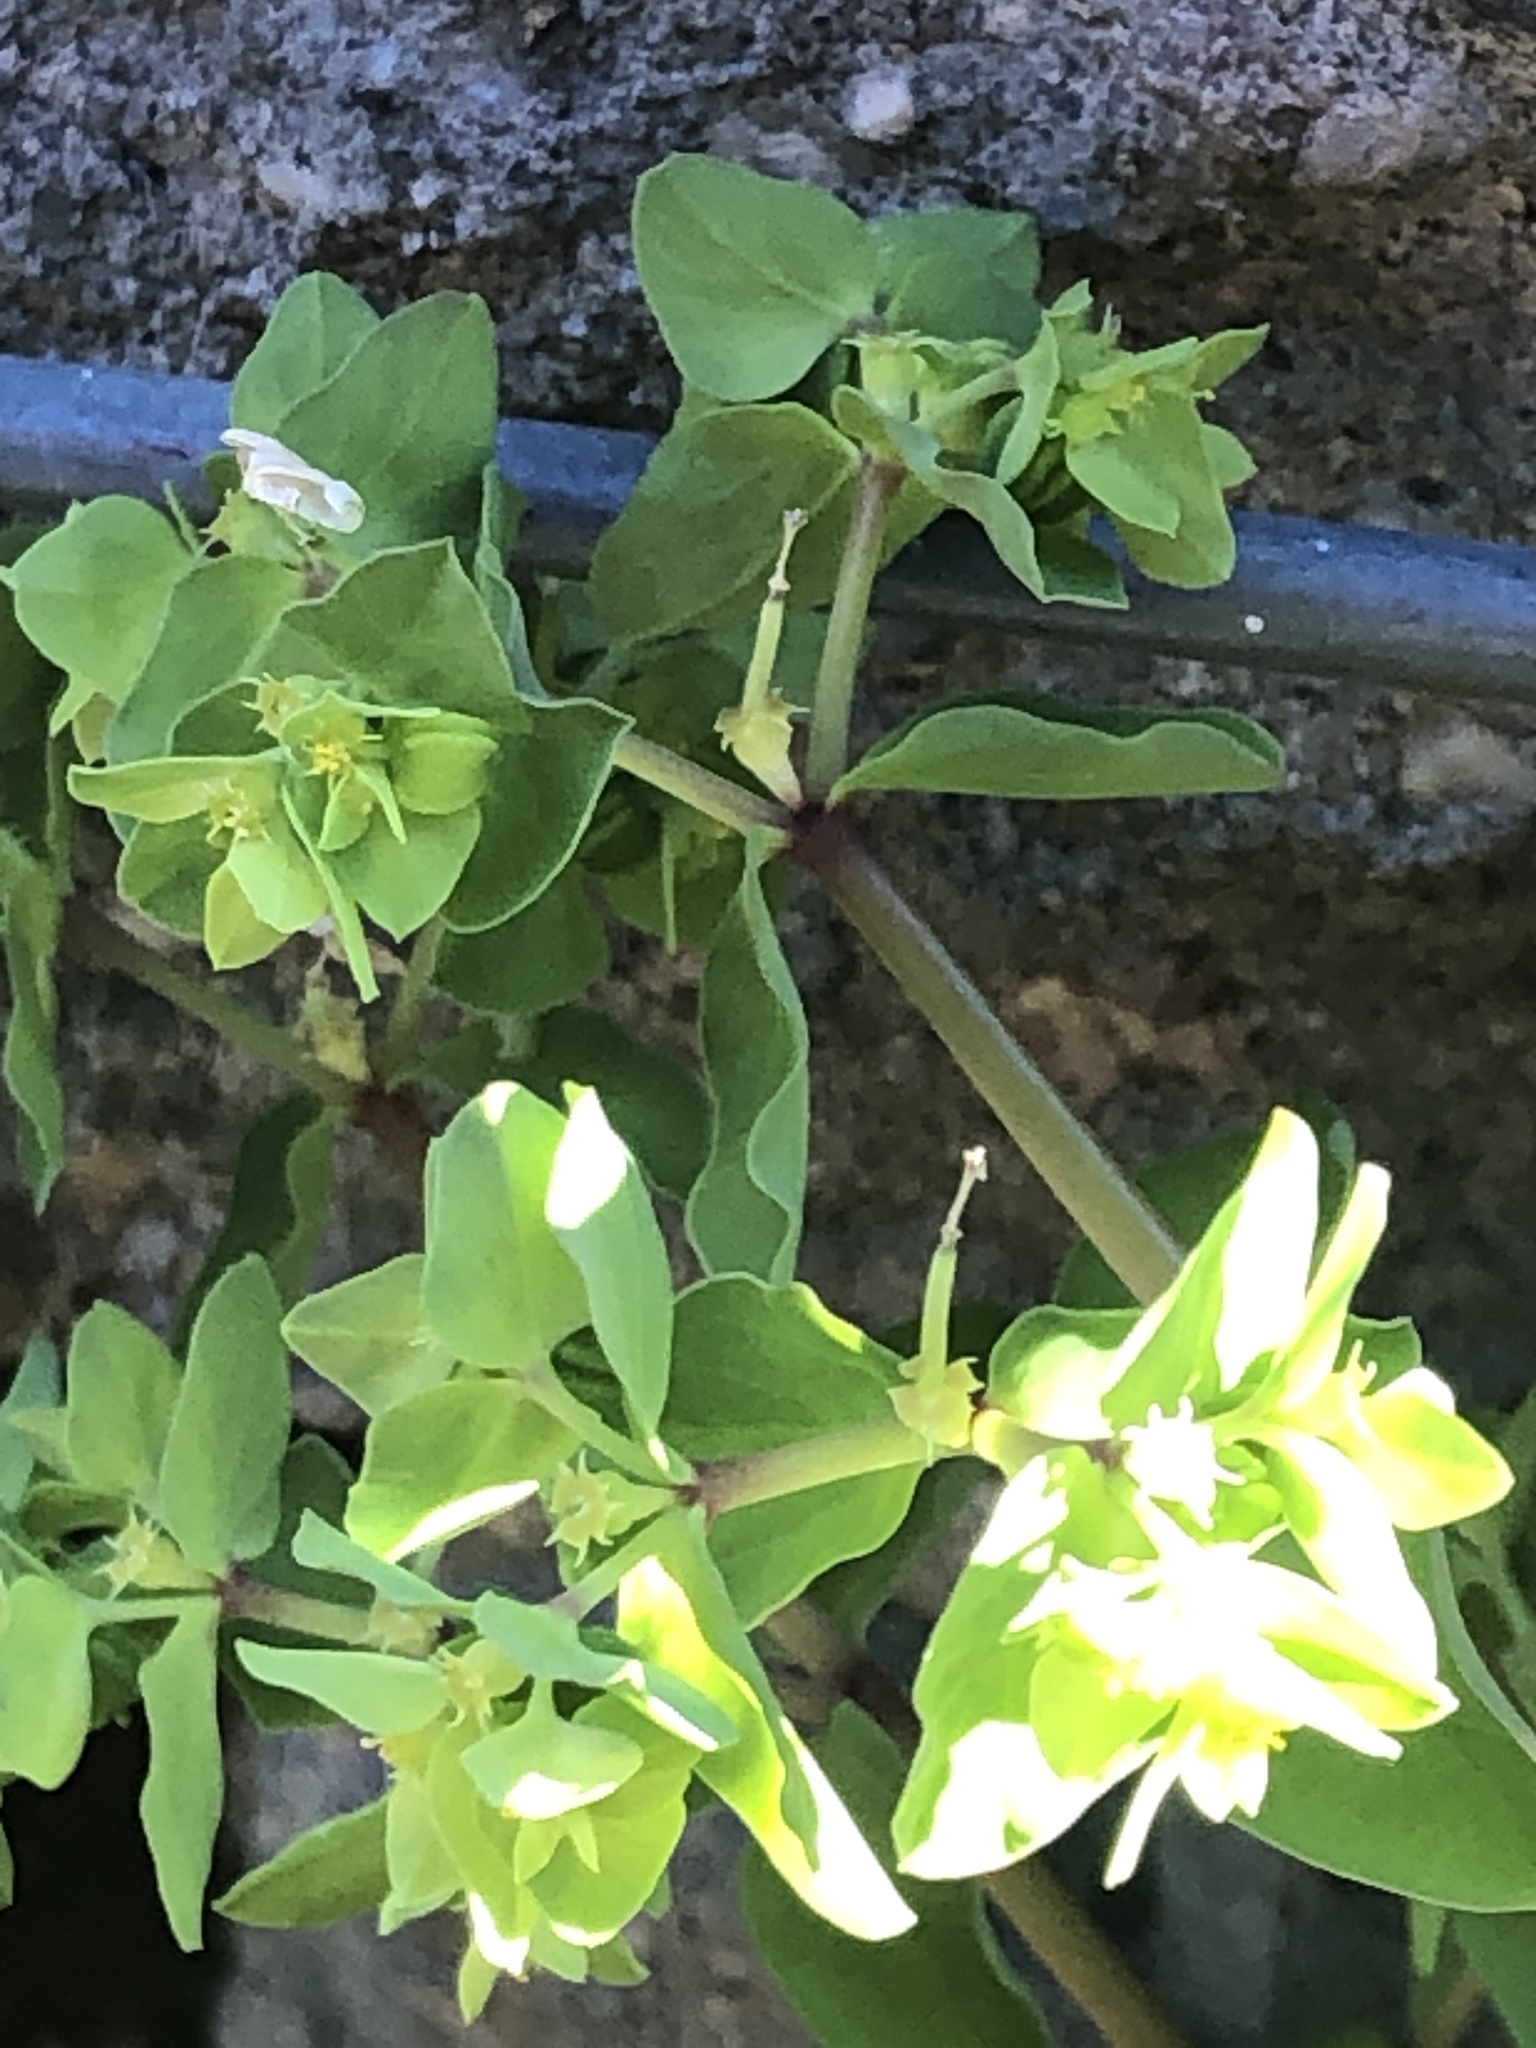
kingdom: Plantae
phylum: Tracheophyta
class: Magnoliopsida
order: Malpighiales
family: Euphorbiaceae
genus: Euphorbia
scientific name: Euphorbia peplus
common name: Petty spurge
